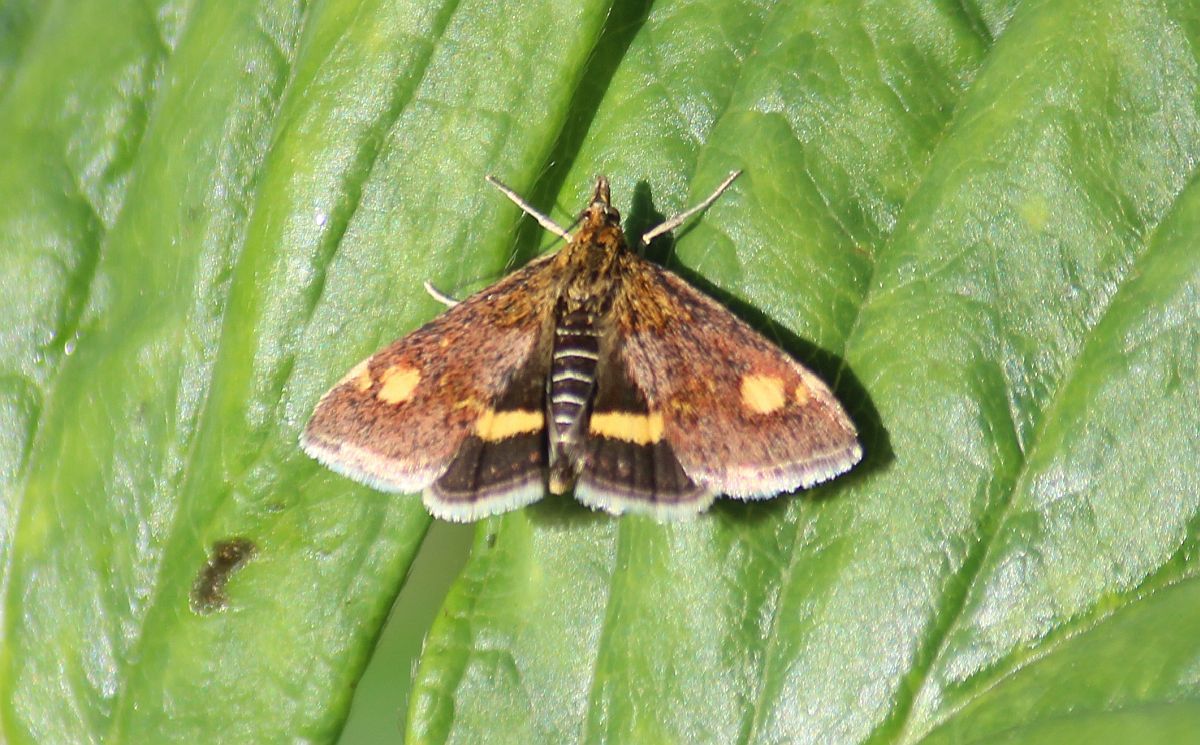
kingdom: Animalia
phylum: Arthropoda
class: Insecta
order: Lepidoptera
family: Crambidae
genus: Pyrausta
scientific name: Pyrausta aurata
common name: Small purple & gold
